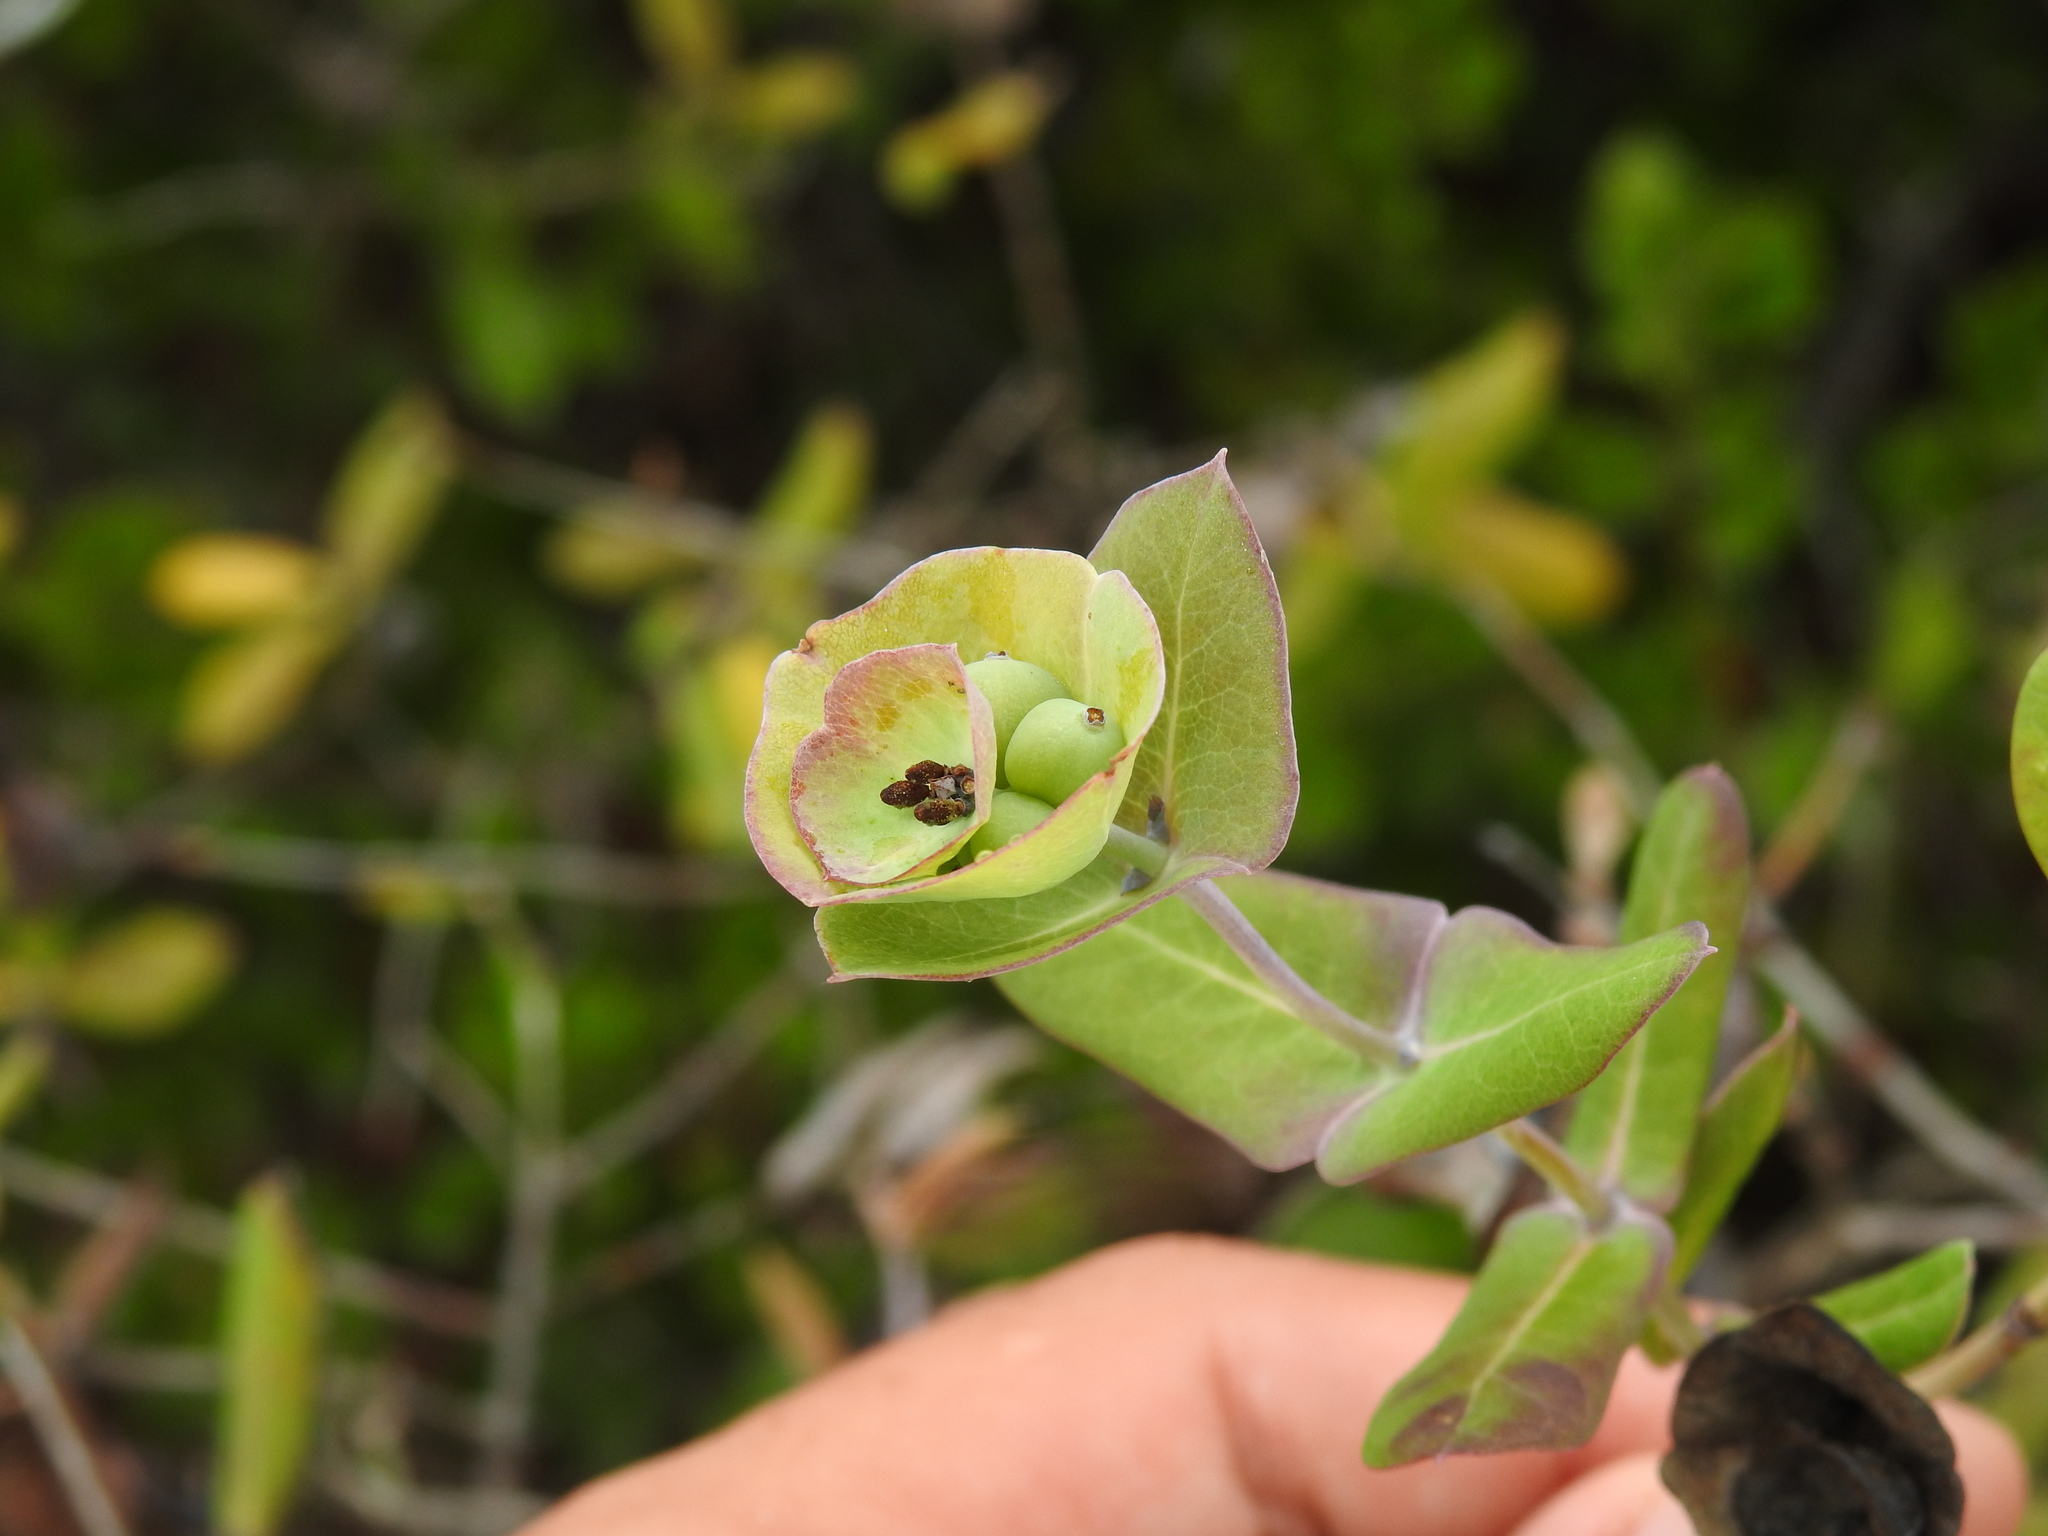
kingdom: Plantae
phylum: Tracheophyta
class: Magnoliopsida
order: Dipsacales
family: Caprifoliaceae
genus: Lonicera
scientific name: Lonicera implexa
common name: Minorca honeysuckle
